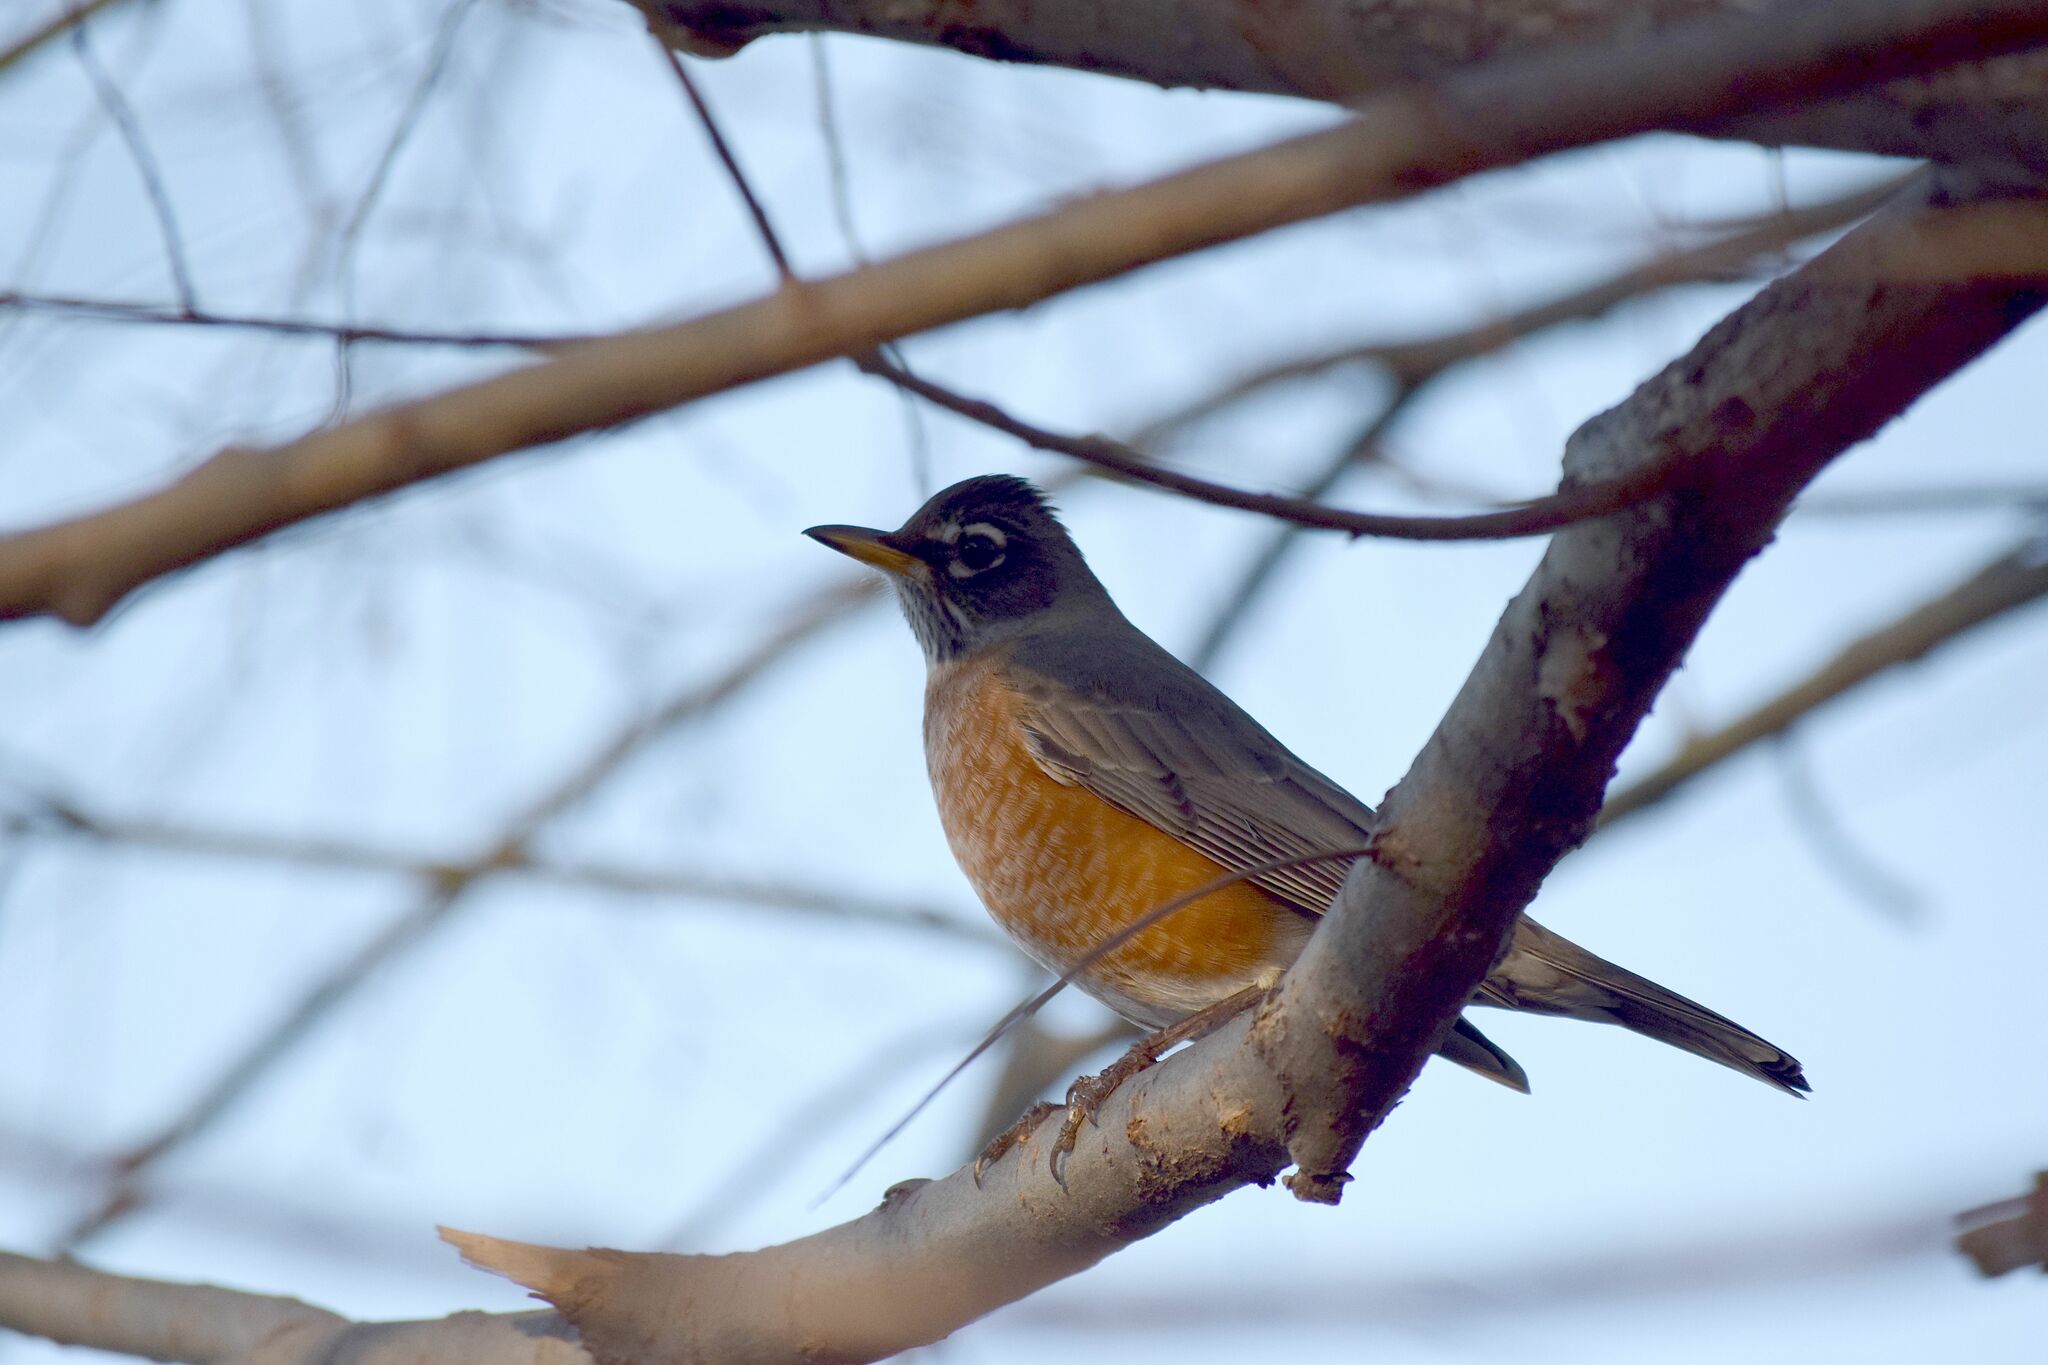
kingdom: Animalia
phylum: Chordata
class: Aves
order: Passeriformes
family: Turdidae
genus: Turdus
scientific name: Turdus migratorius
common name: American robin
